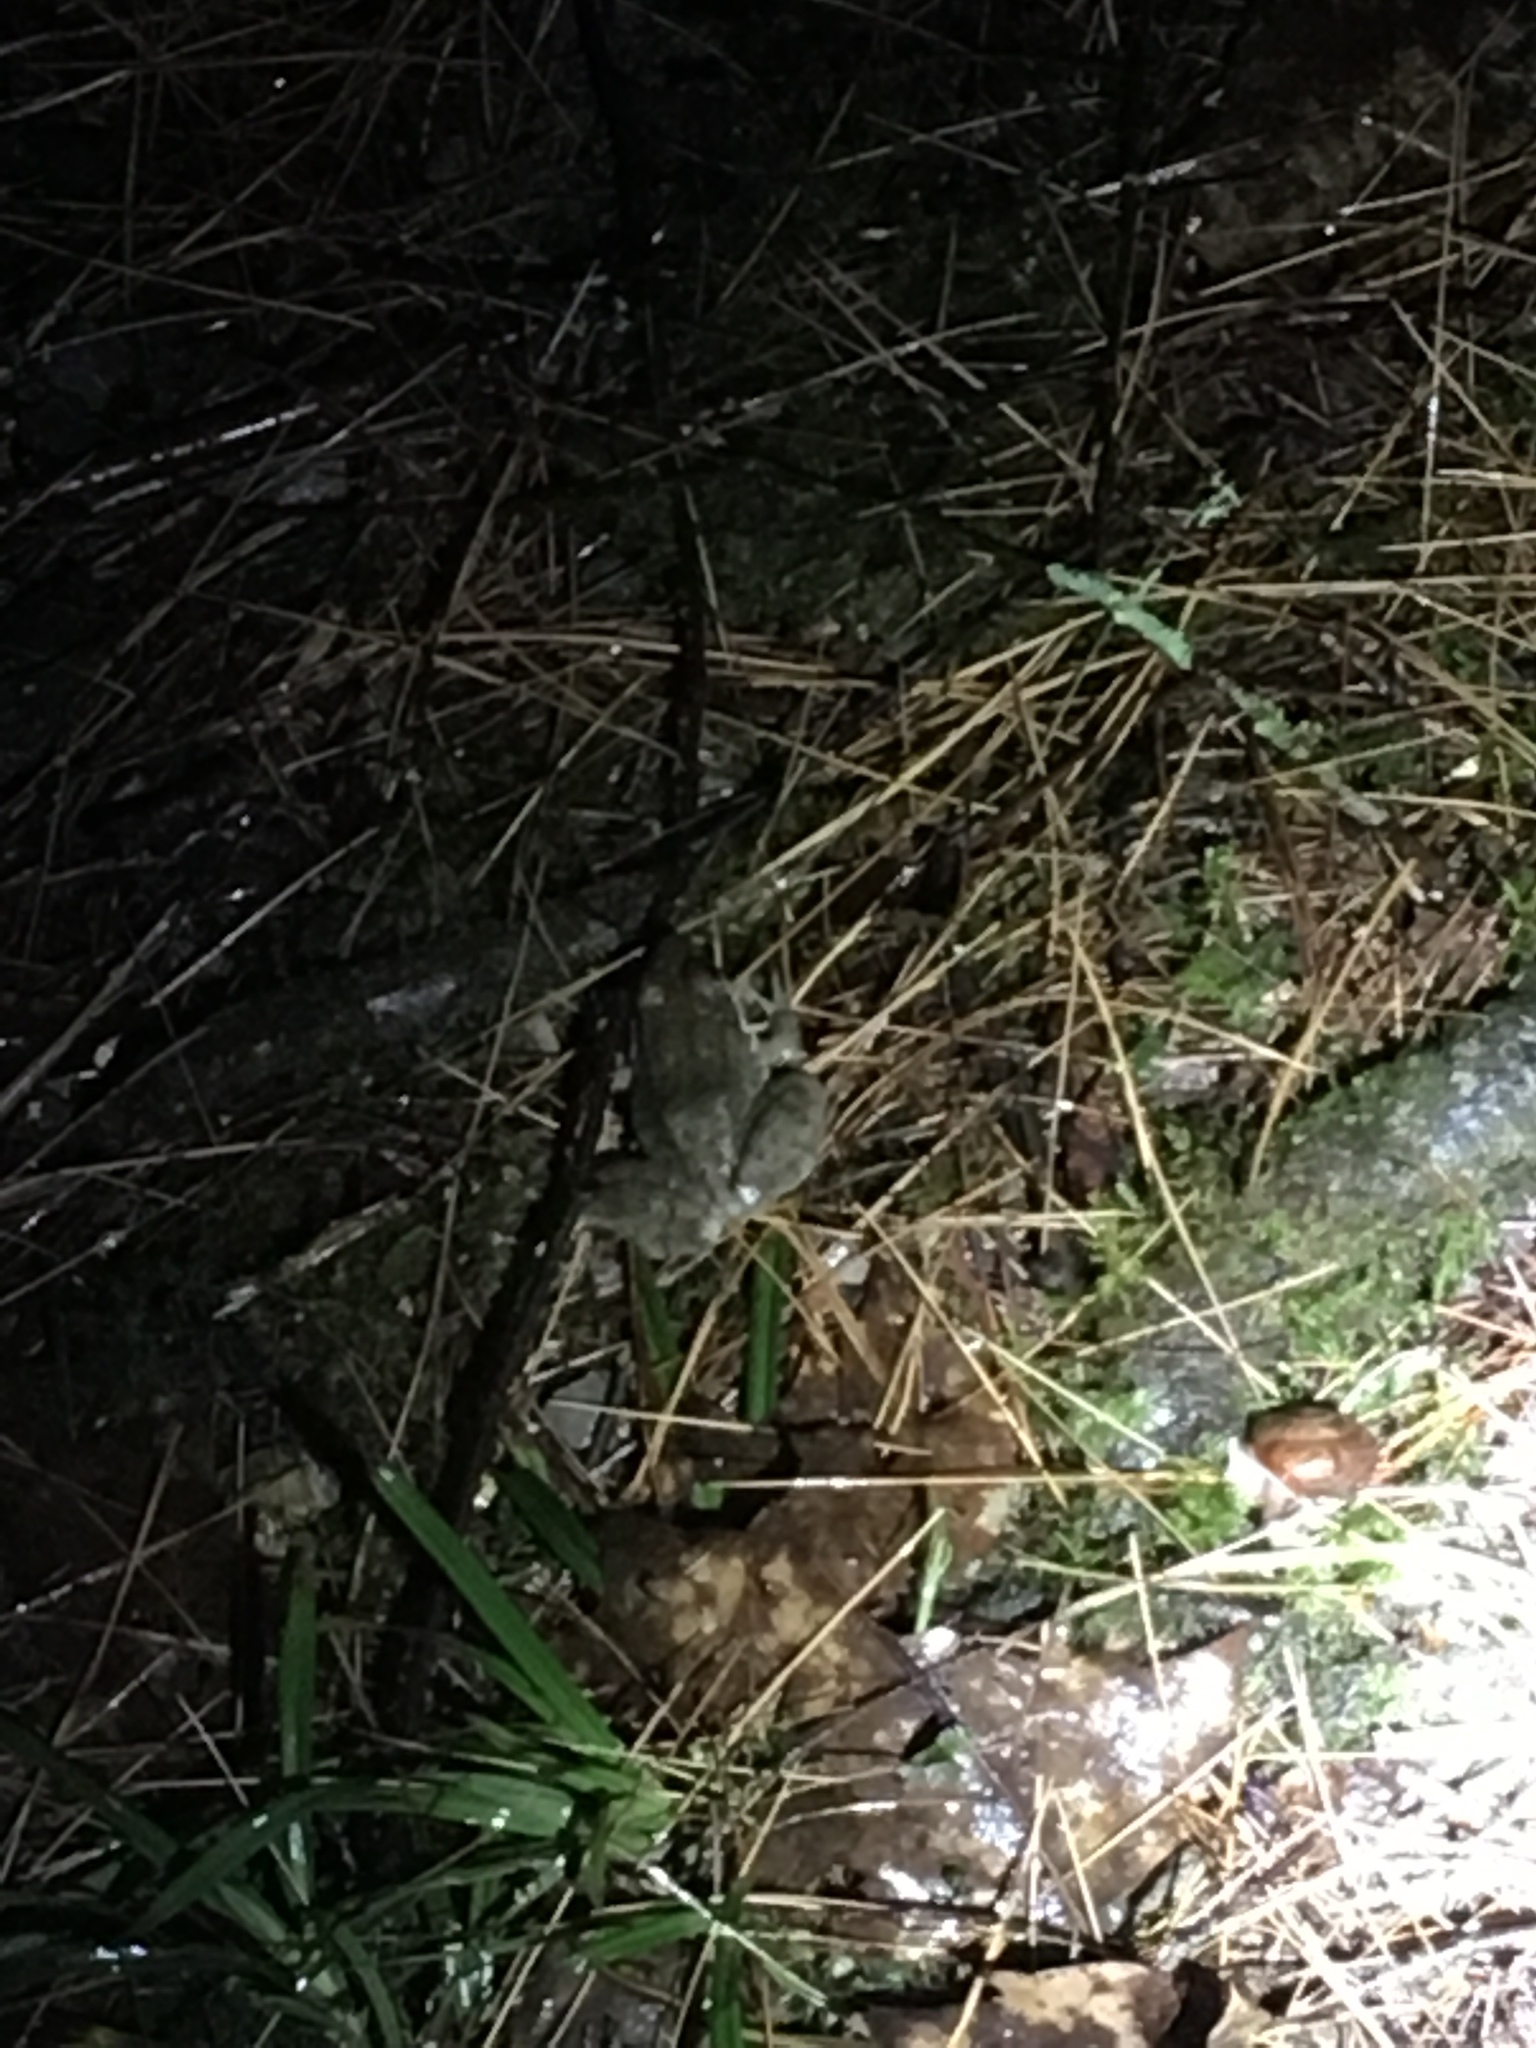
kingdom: Animalia
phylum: Chordata
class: Amphibia
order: Anura
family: Ranidae
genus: Lithobates
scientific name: Lithobates sylvaticus
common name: Wood frog
